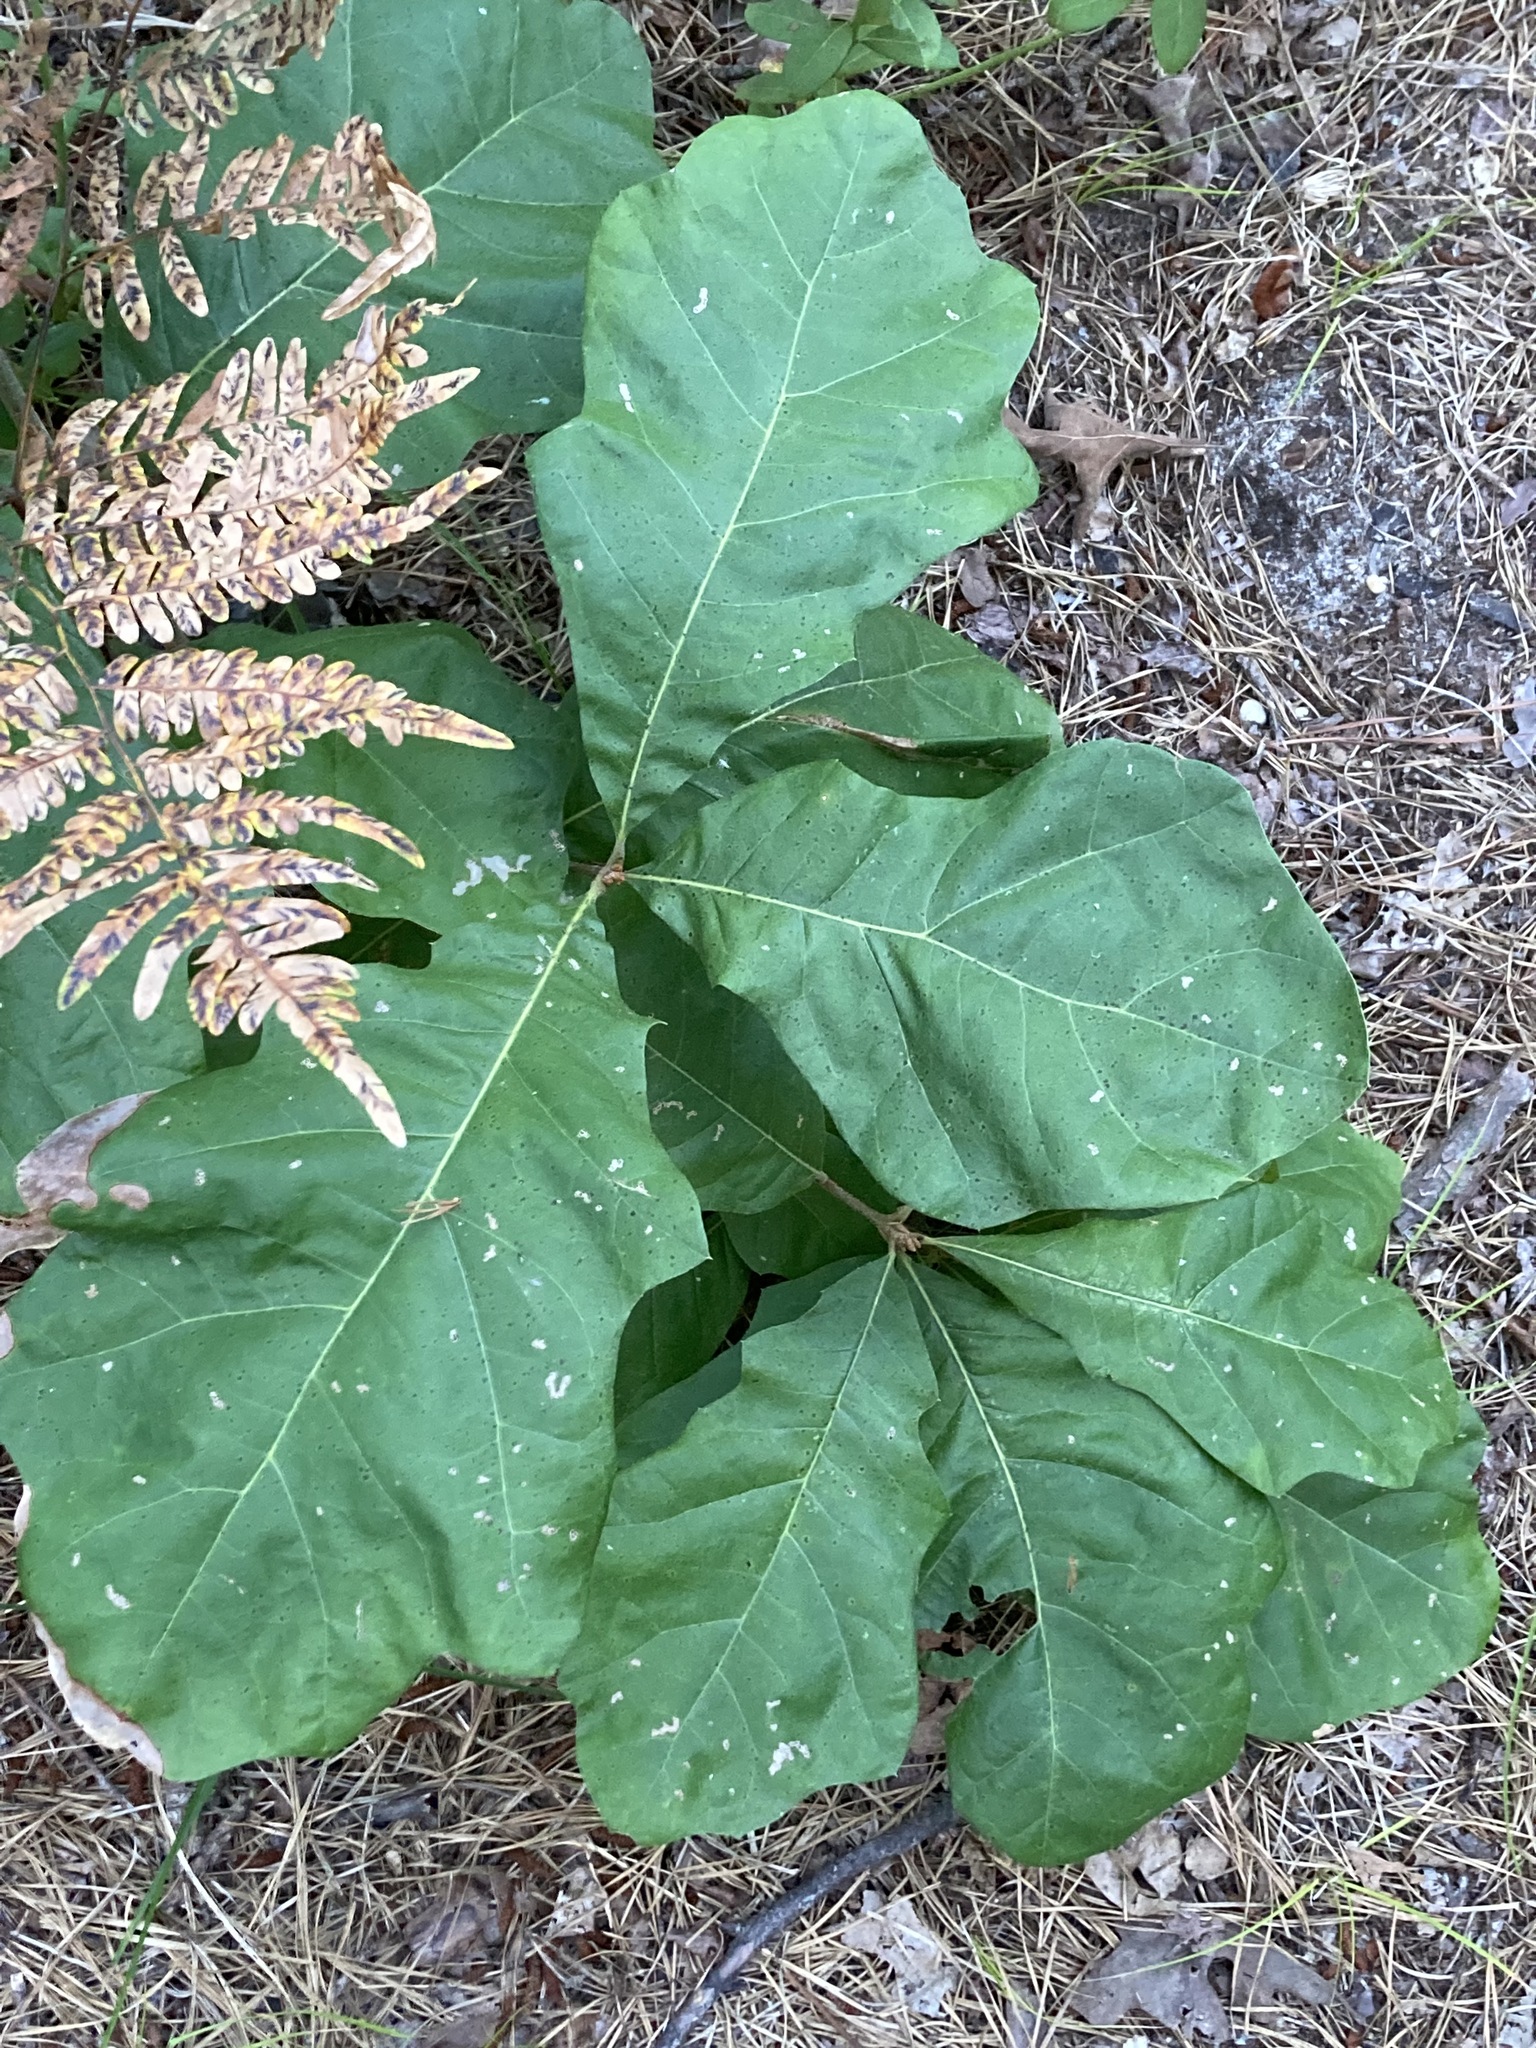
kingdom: Plantae
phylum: Tracheophyta
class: Magnoliopsida
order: Fagales
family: Fagaceae
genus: Quercus
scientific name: Quercus bicolor
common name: Swamp white oak
